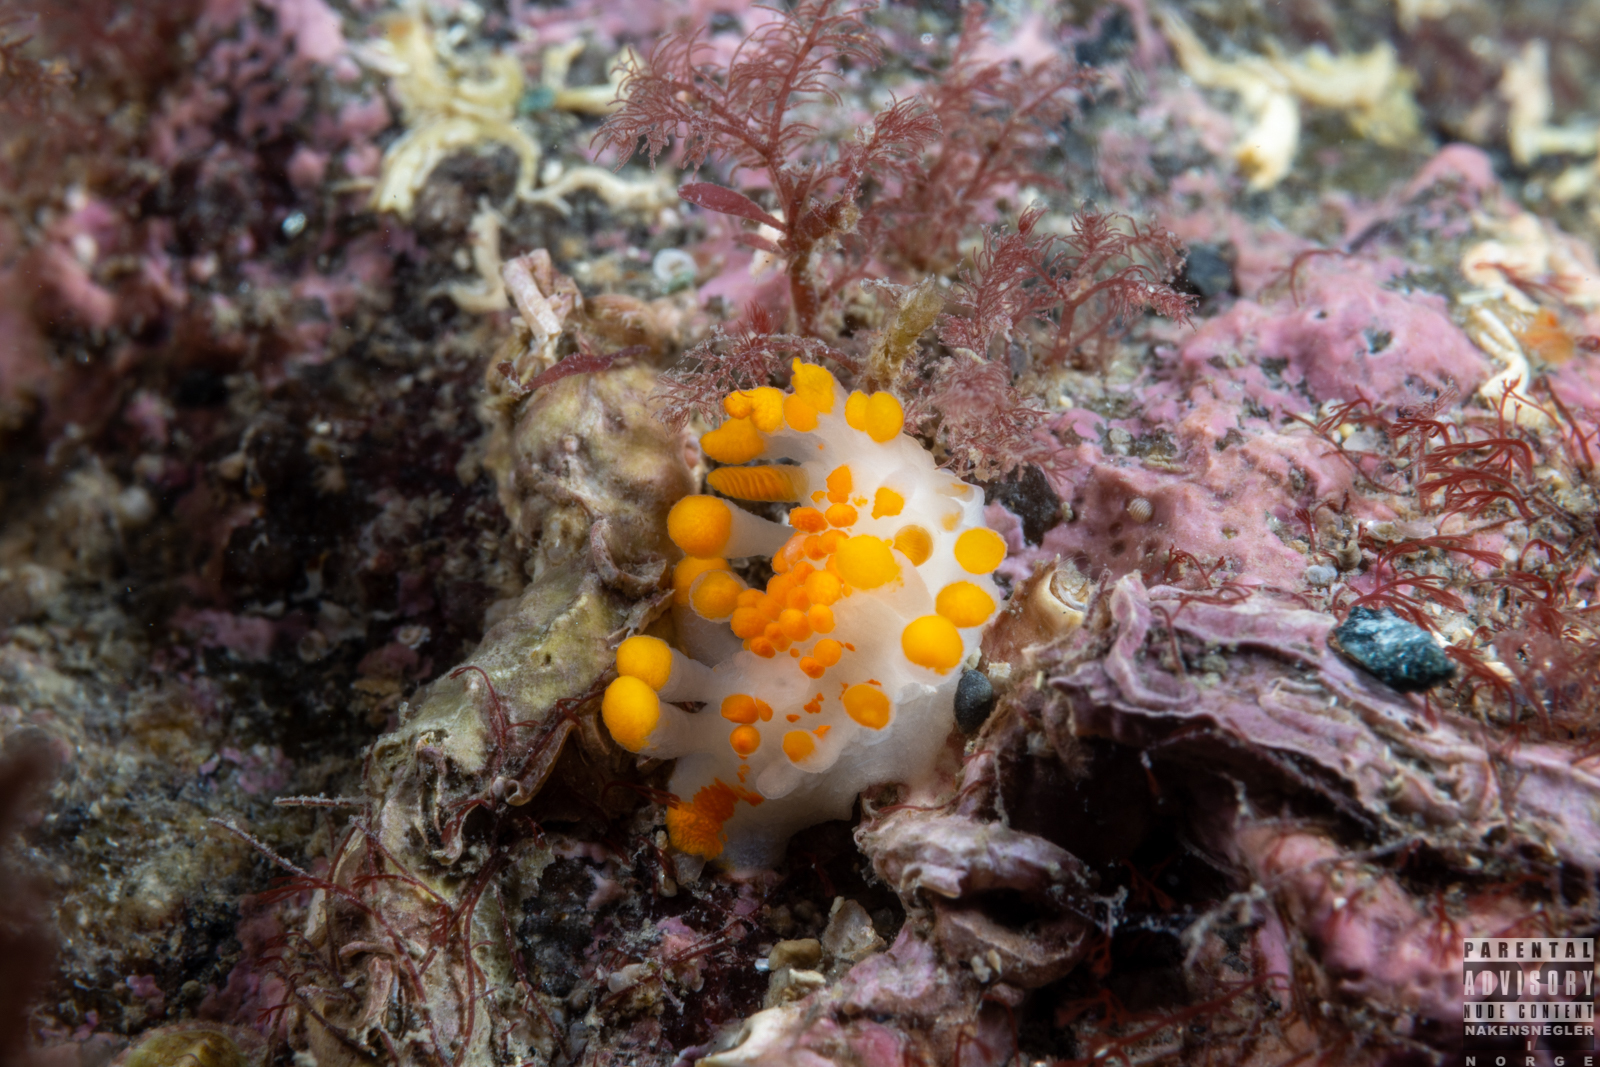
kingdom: Animalia
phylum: Mollusca
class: Gastropoda
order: Nudibranchia
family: Polyceridae
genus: Limacia
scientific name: Limacia clavigera
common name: Orange-clubbed sea slug
